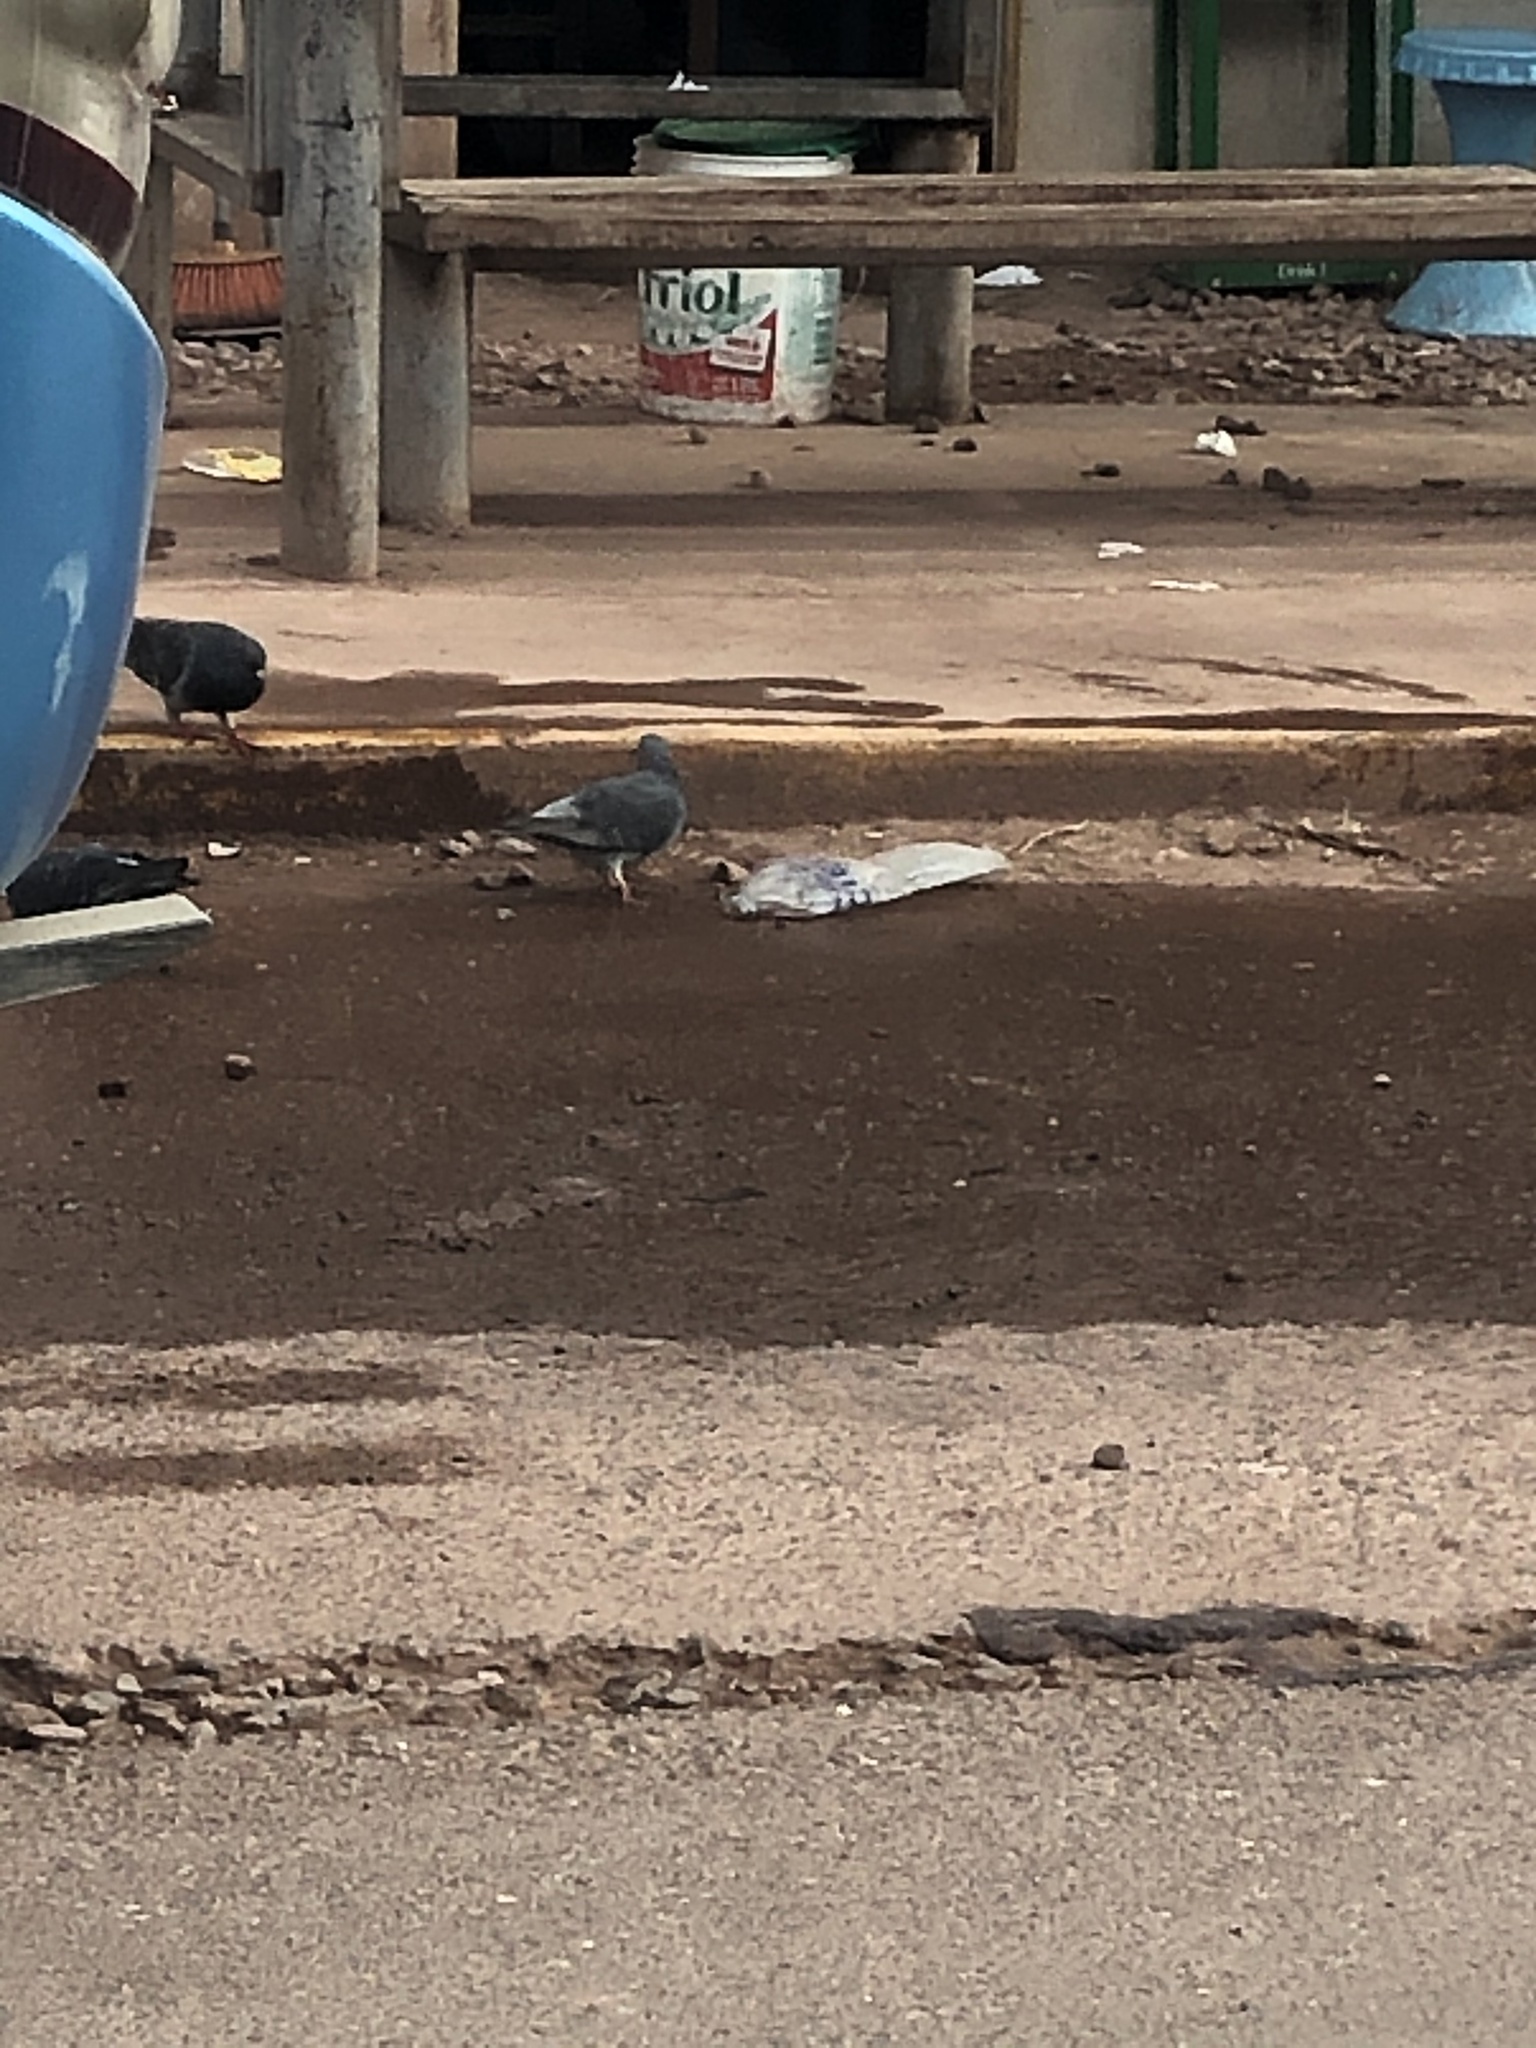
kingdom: Animalia
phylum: Chordata
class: Aves
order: Columbiformes
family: Columbidae
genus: Columba
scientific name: Columba livia
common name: Rock pigeon
